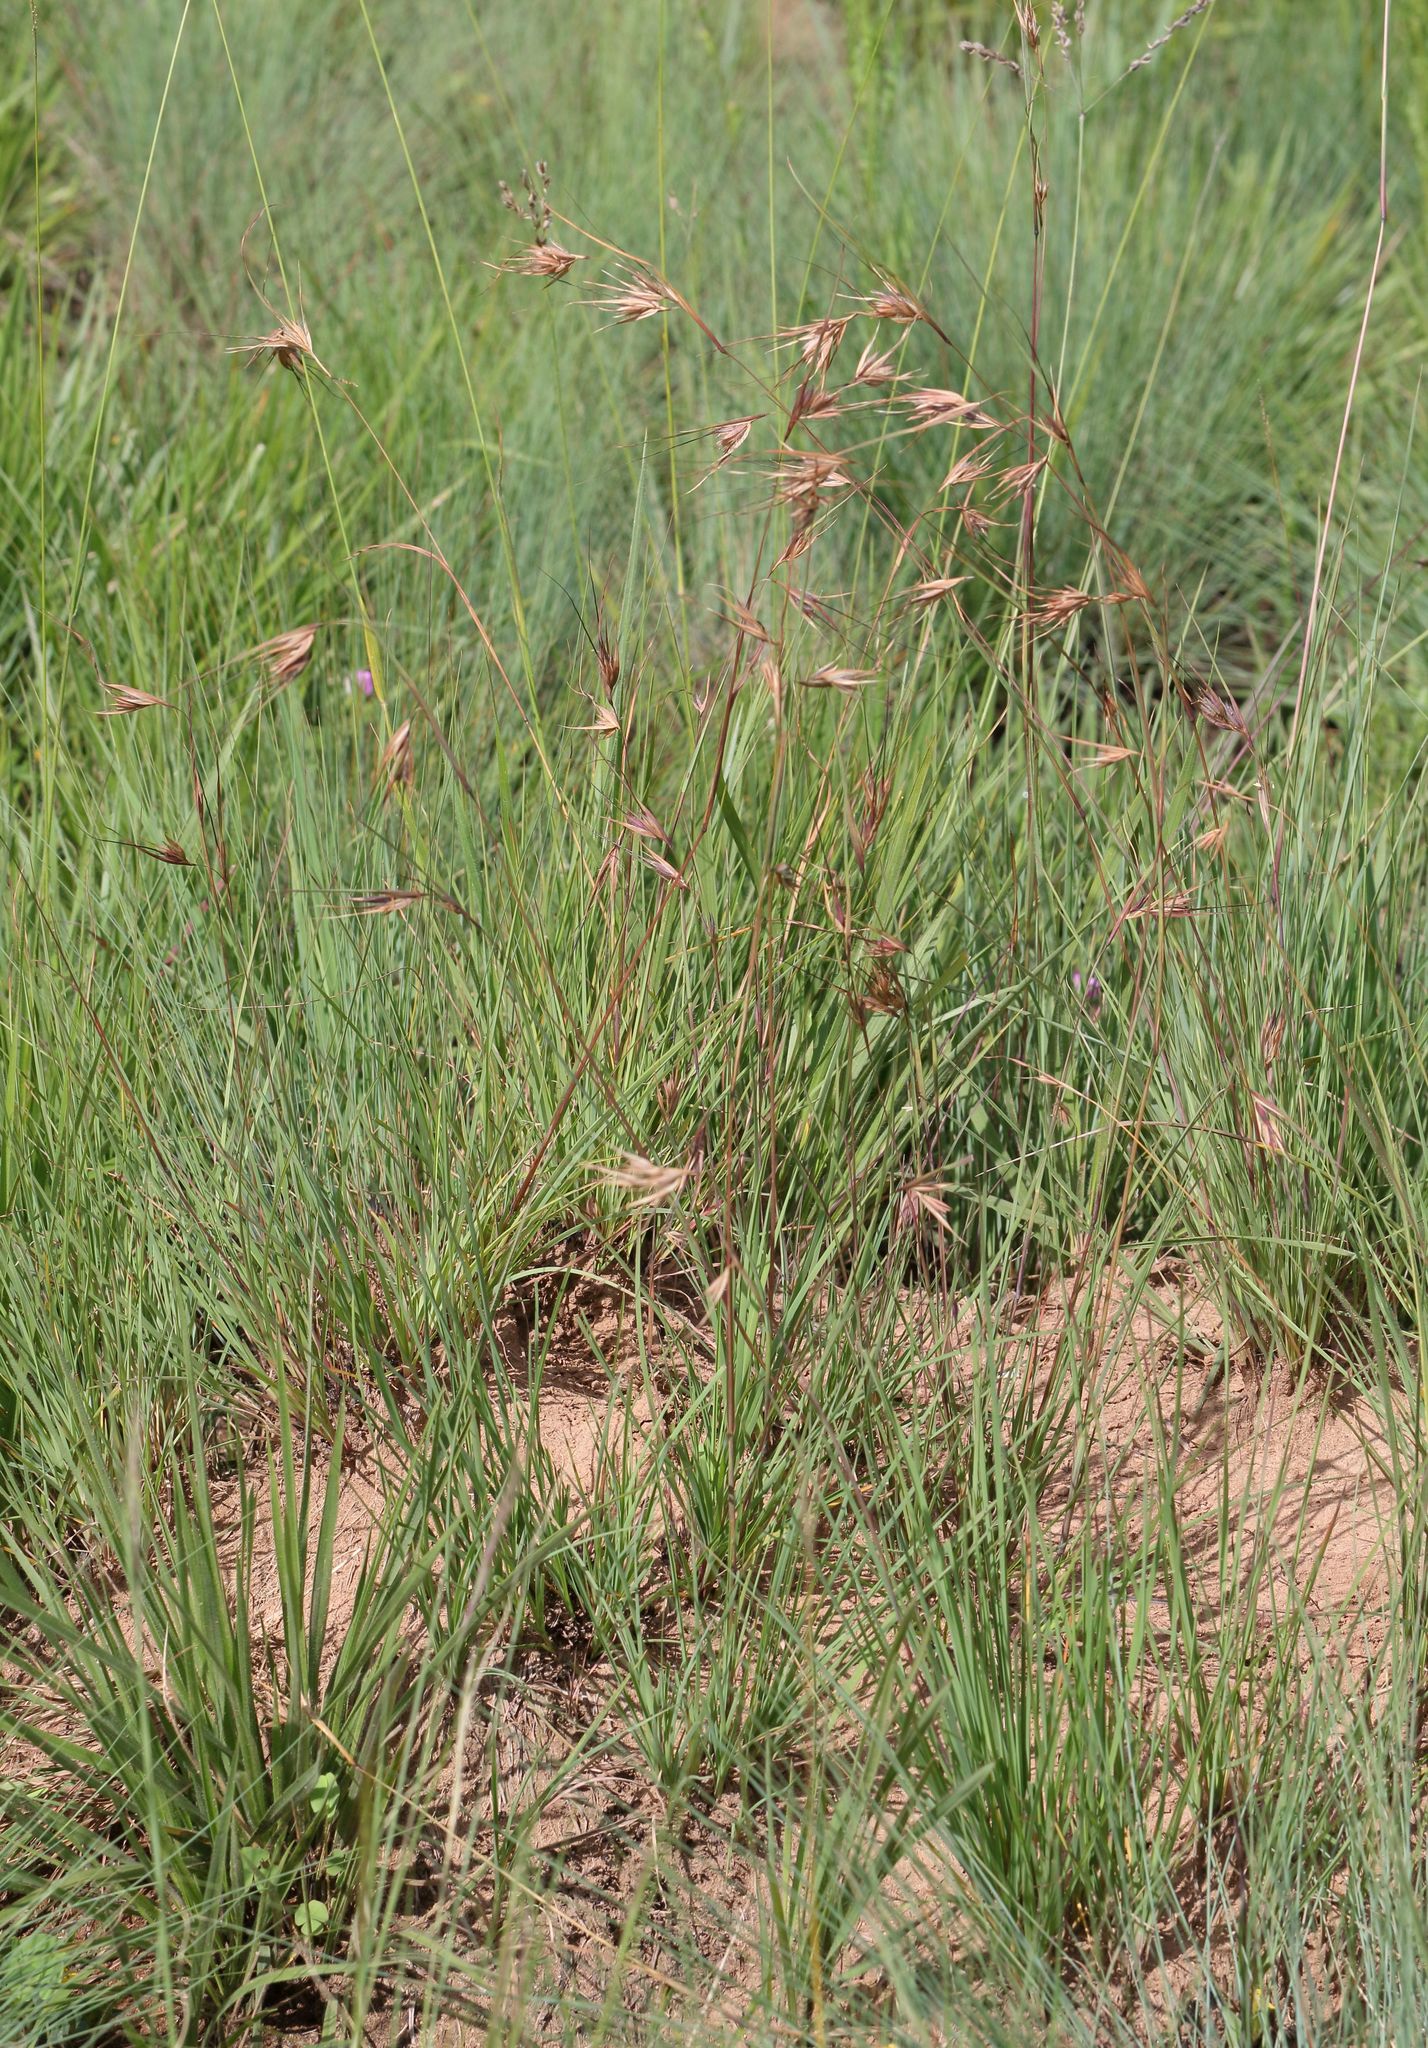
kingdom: Plantae
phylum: Tracheophyta
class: Liliopsida
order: Poales
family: Poaceae
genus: Themeda
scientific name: Themeda triandra
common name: Kangaroo grass
